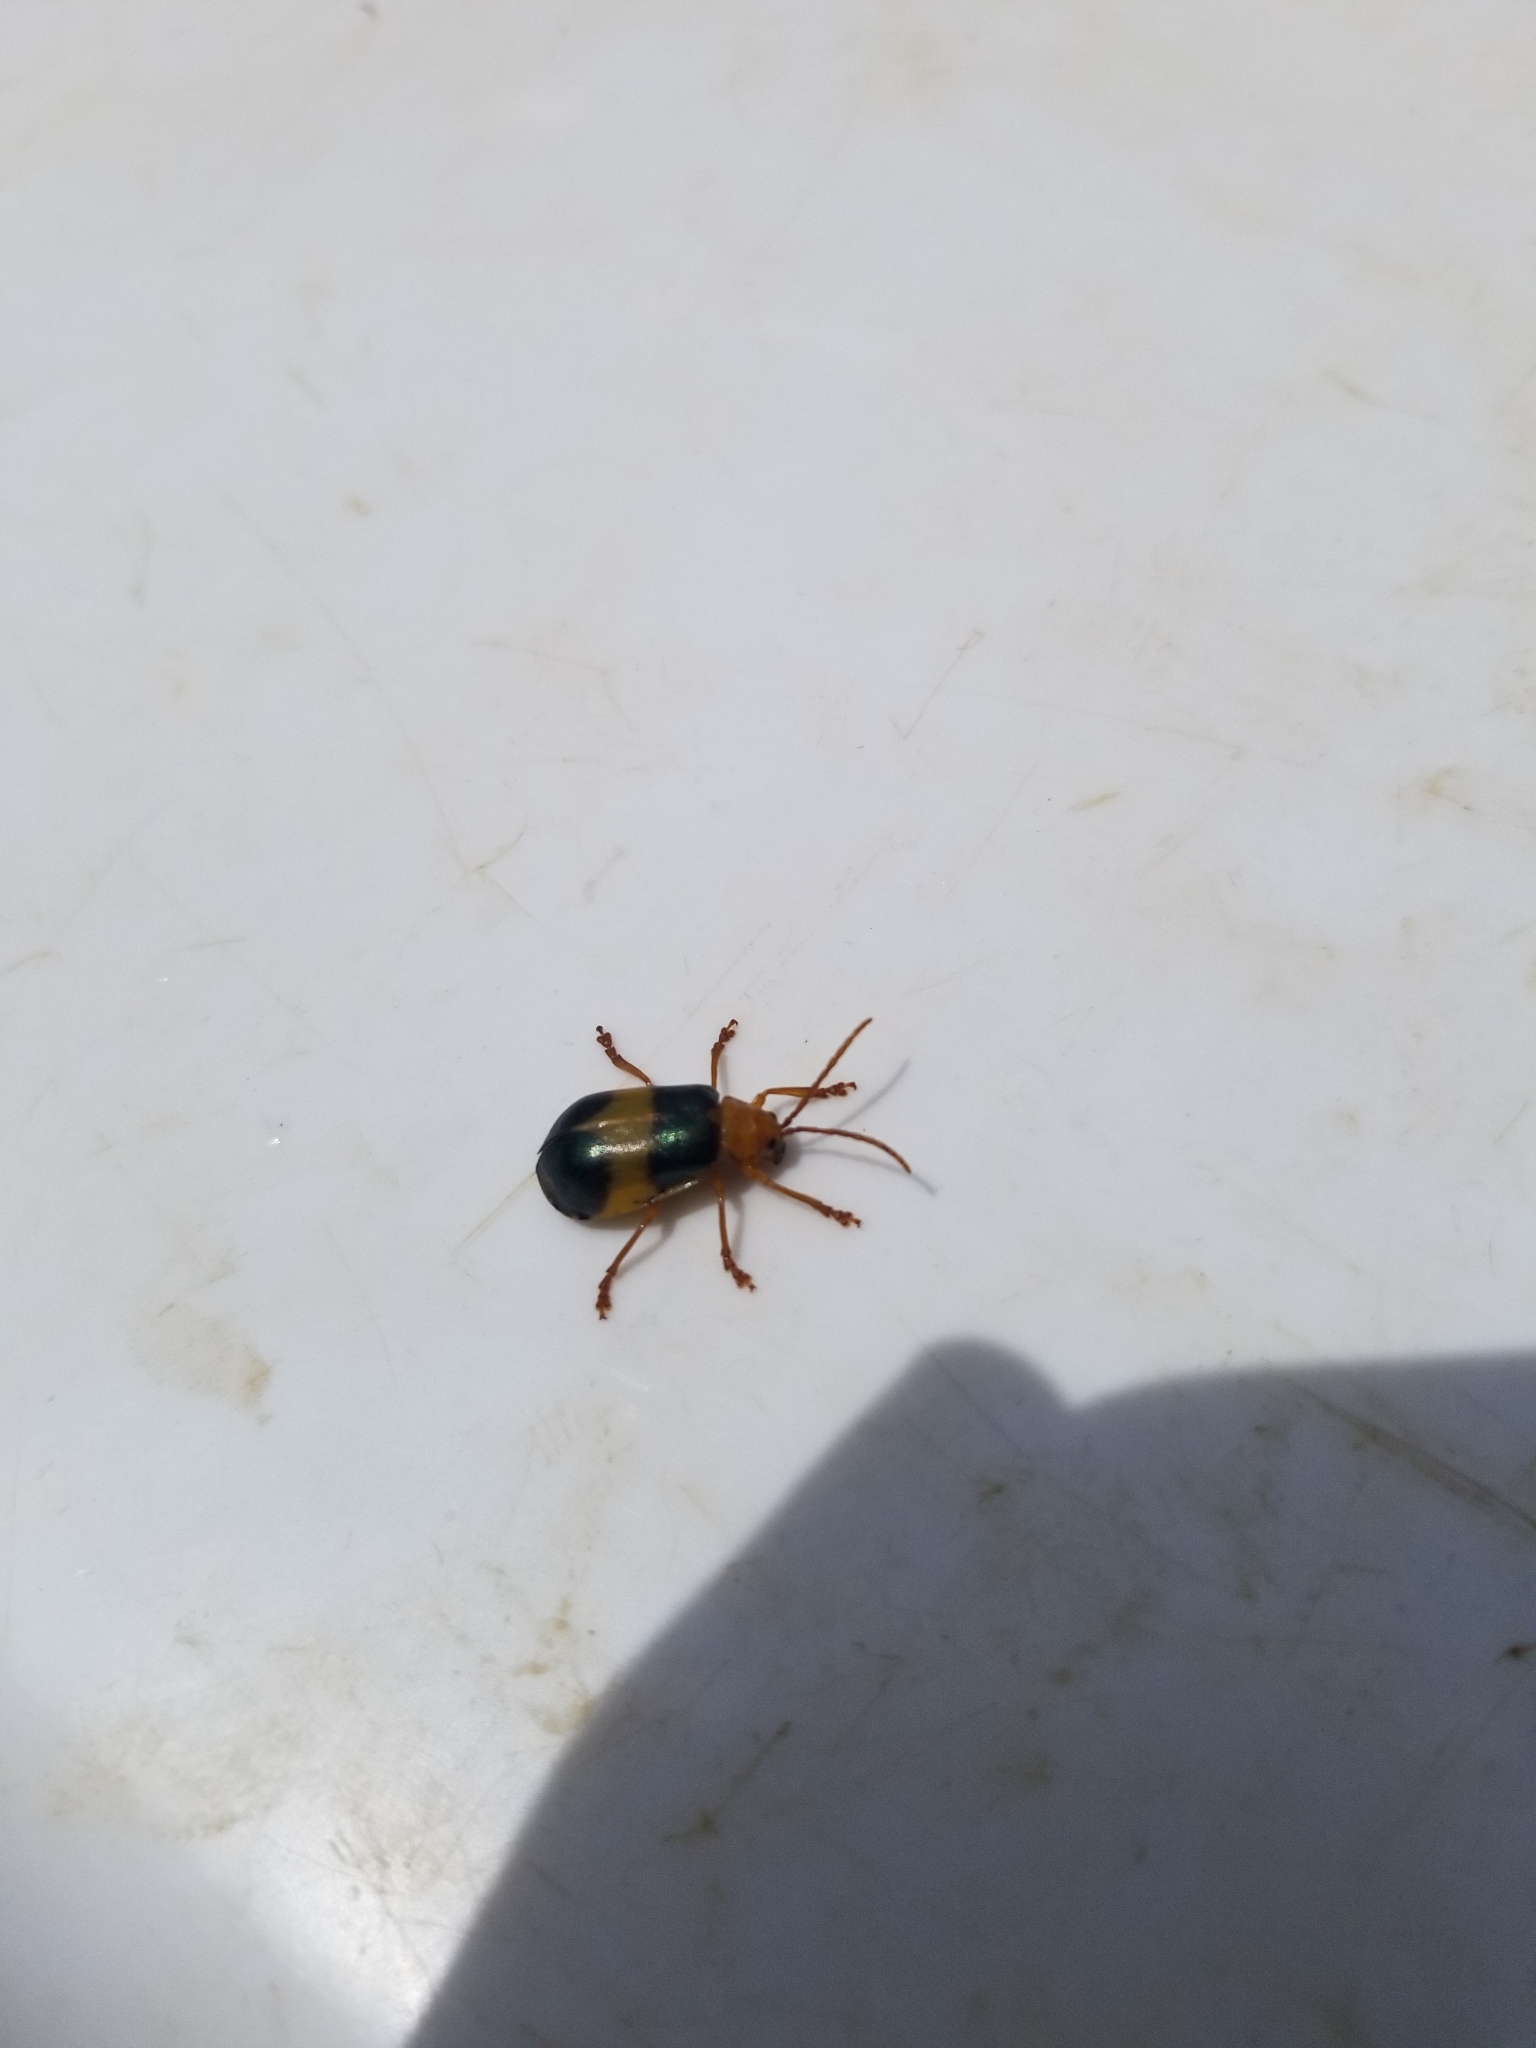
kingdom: Animalia
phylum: Arthropoda
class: Insecta
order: Coleoptera
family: Chrysomelidae
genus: Monocesta
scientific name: Monocesta coryli
